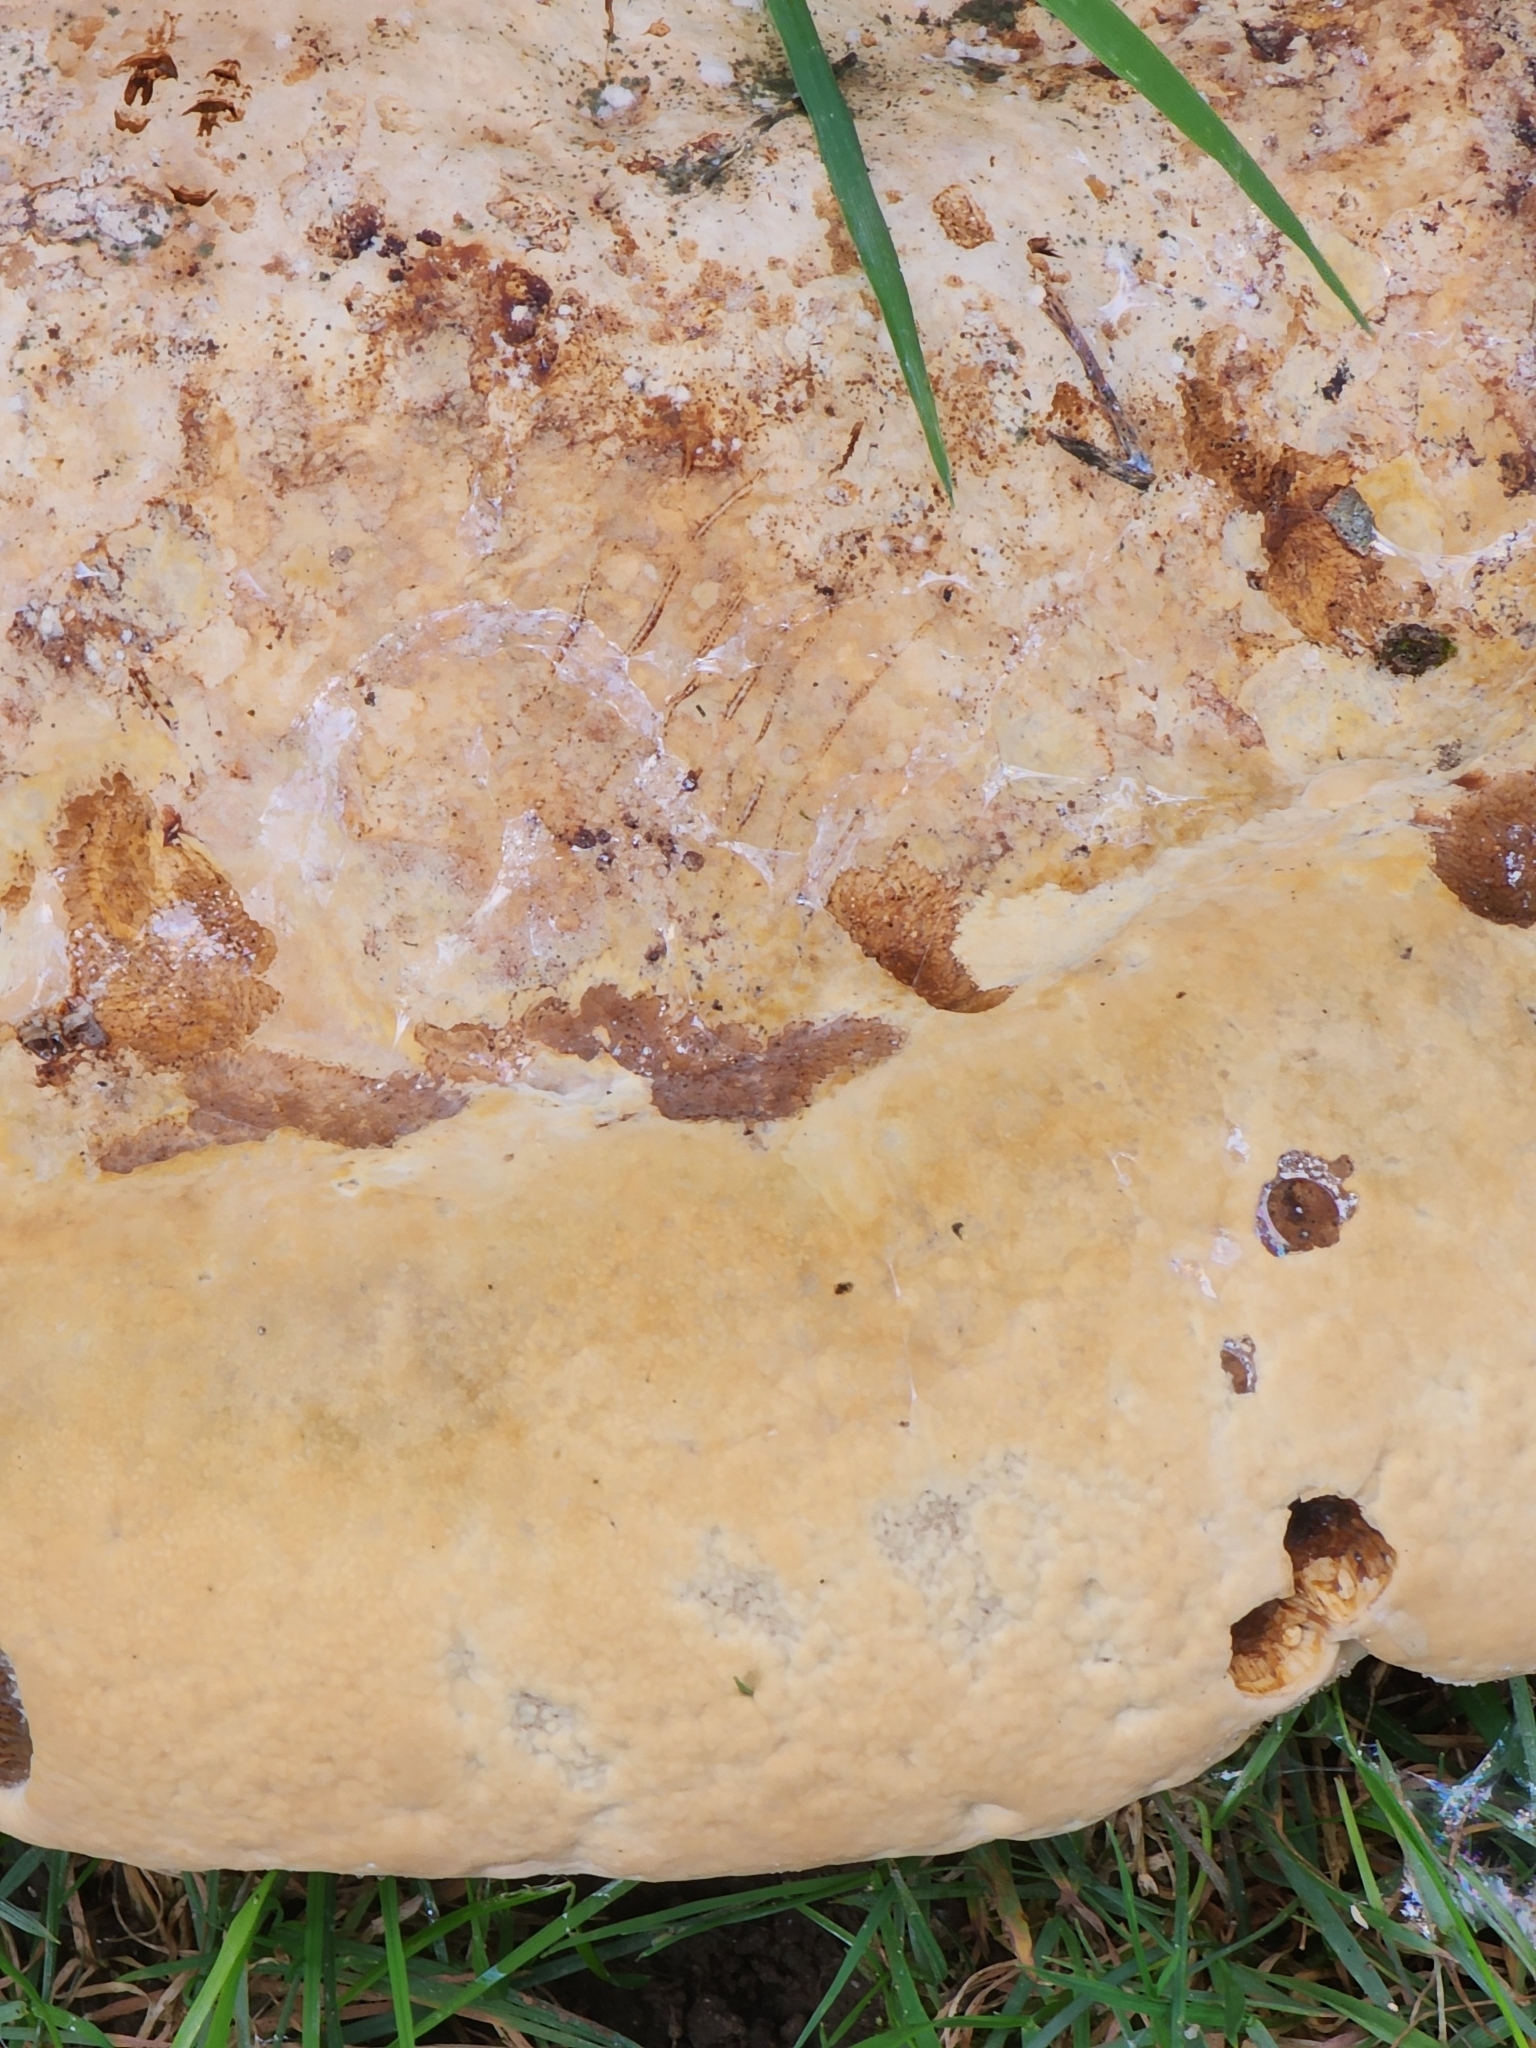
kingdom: Fungi
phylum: Basidiomycota
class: Agaricomycetes
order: Hymenochaetales
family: Hymenochaetaceae
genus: Pseudoinonotus
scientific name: Pseudoinonotus dryadeus
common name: Oak bracket
